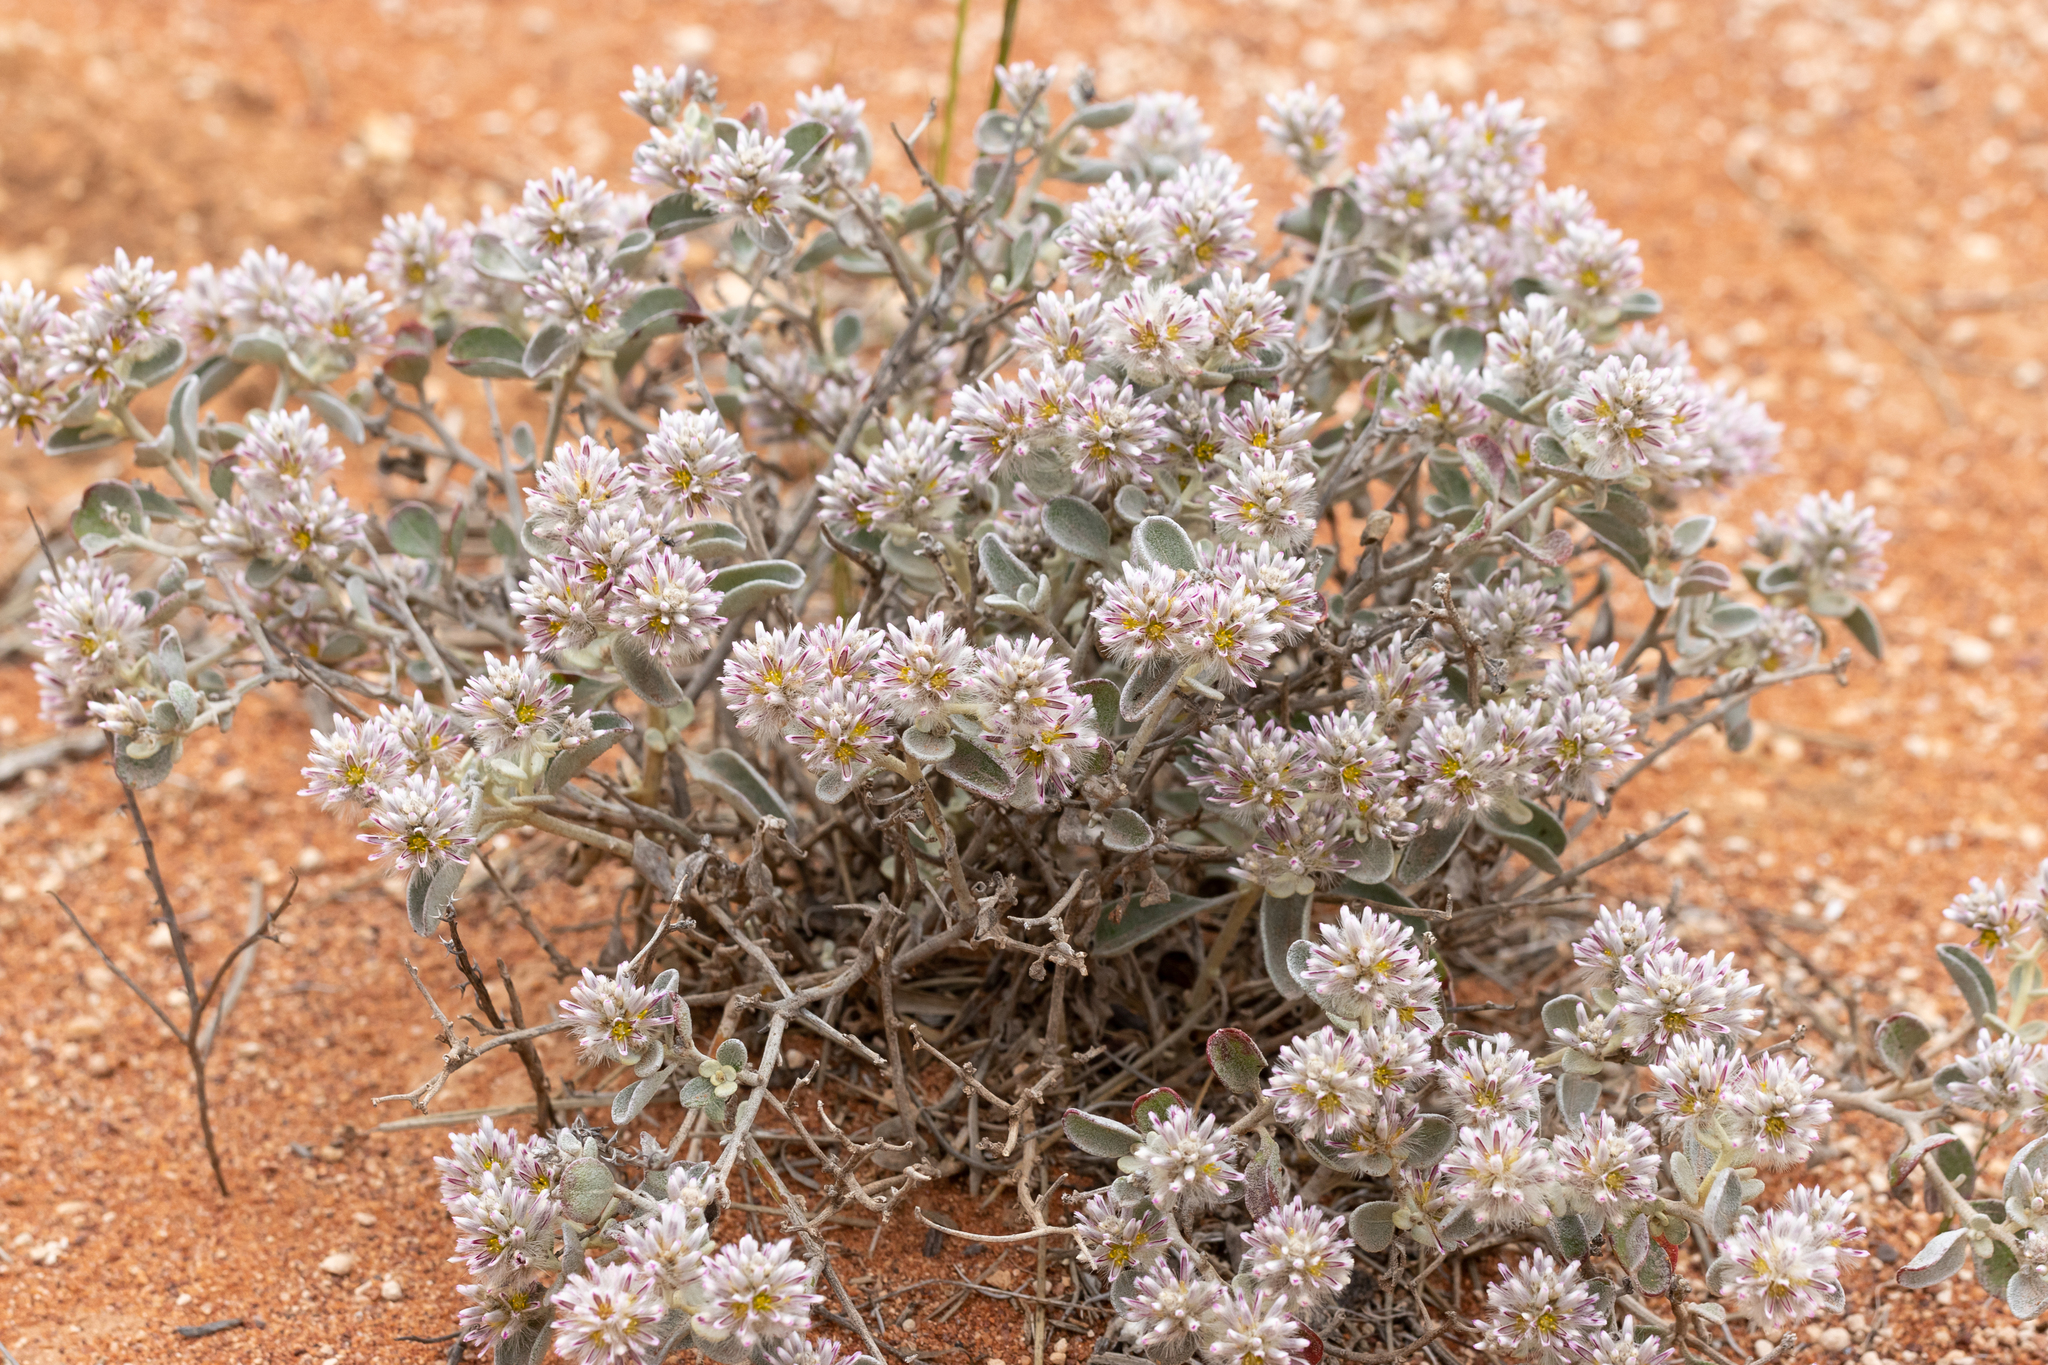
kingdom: Plantae
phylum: Tracheophyta
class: Magnoliopsida
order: Caryophyllales
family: Amaranthaceae
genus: Ptilotus
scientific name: Ptilotus obovatus
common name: Cottonbush
